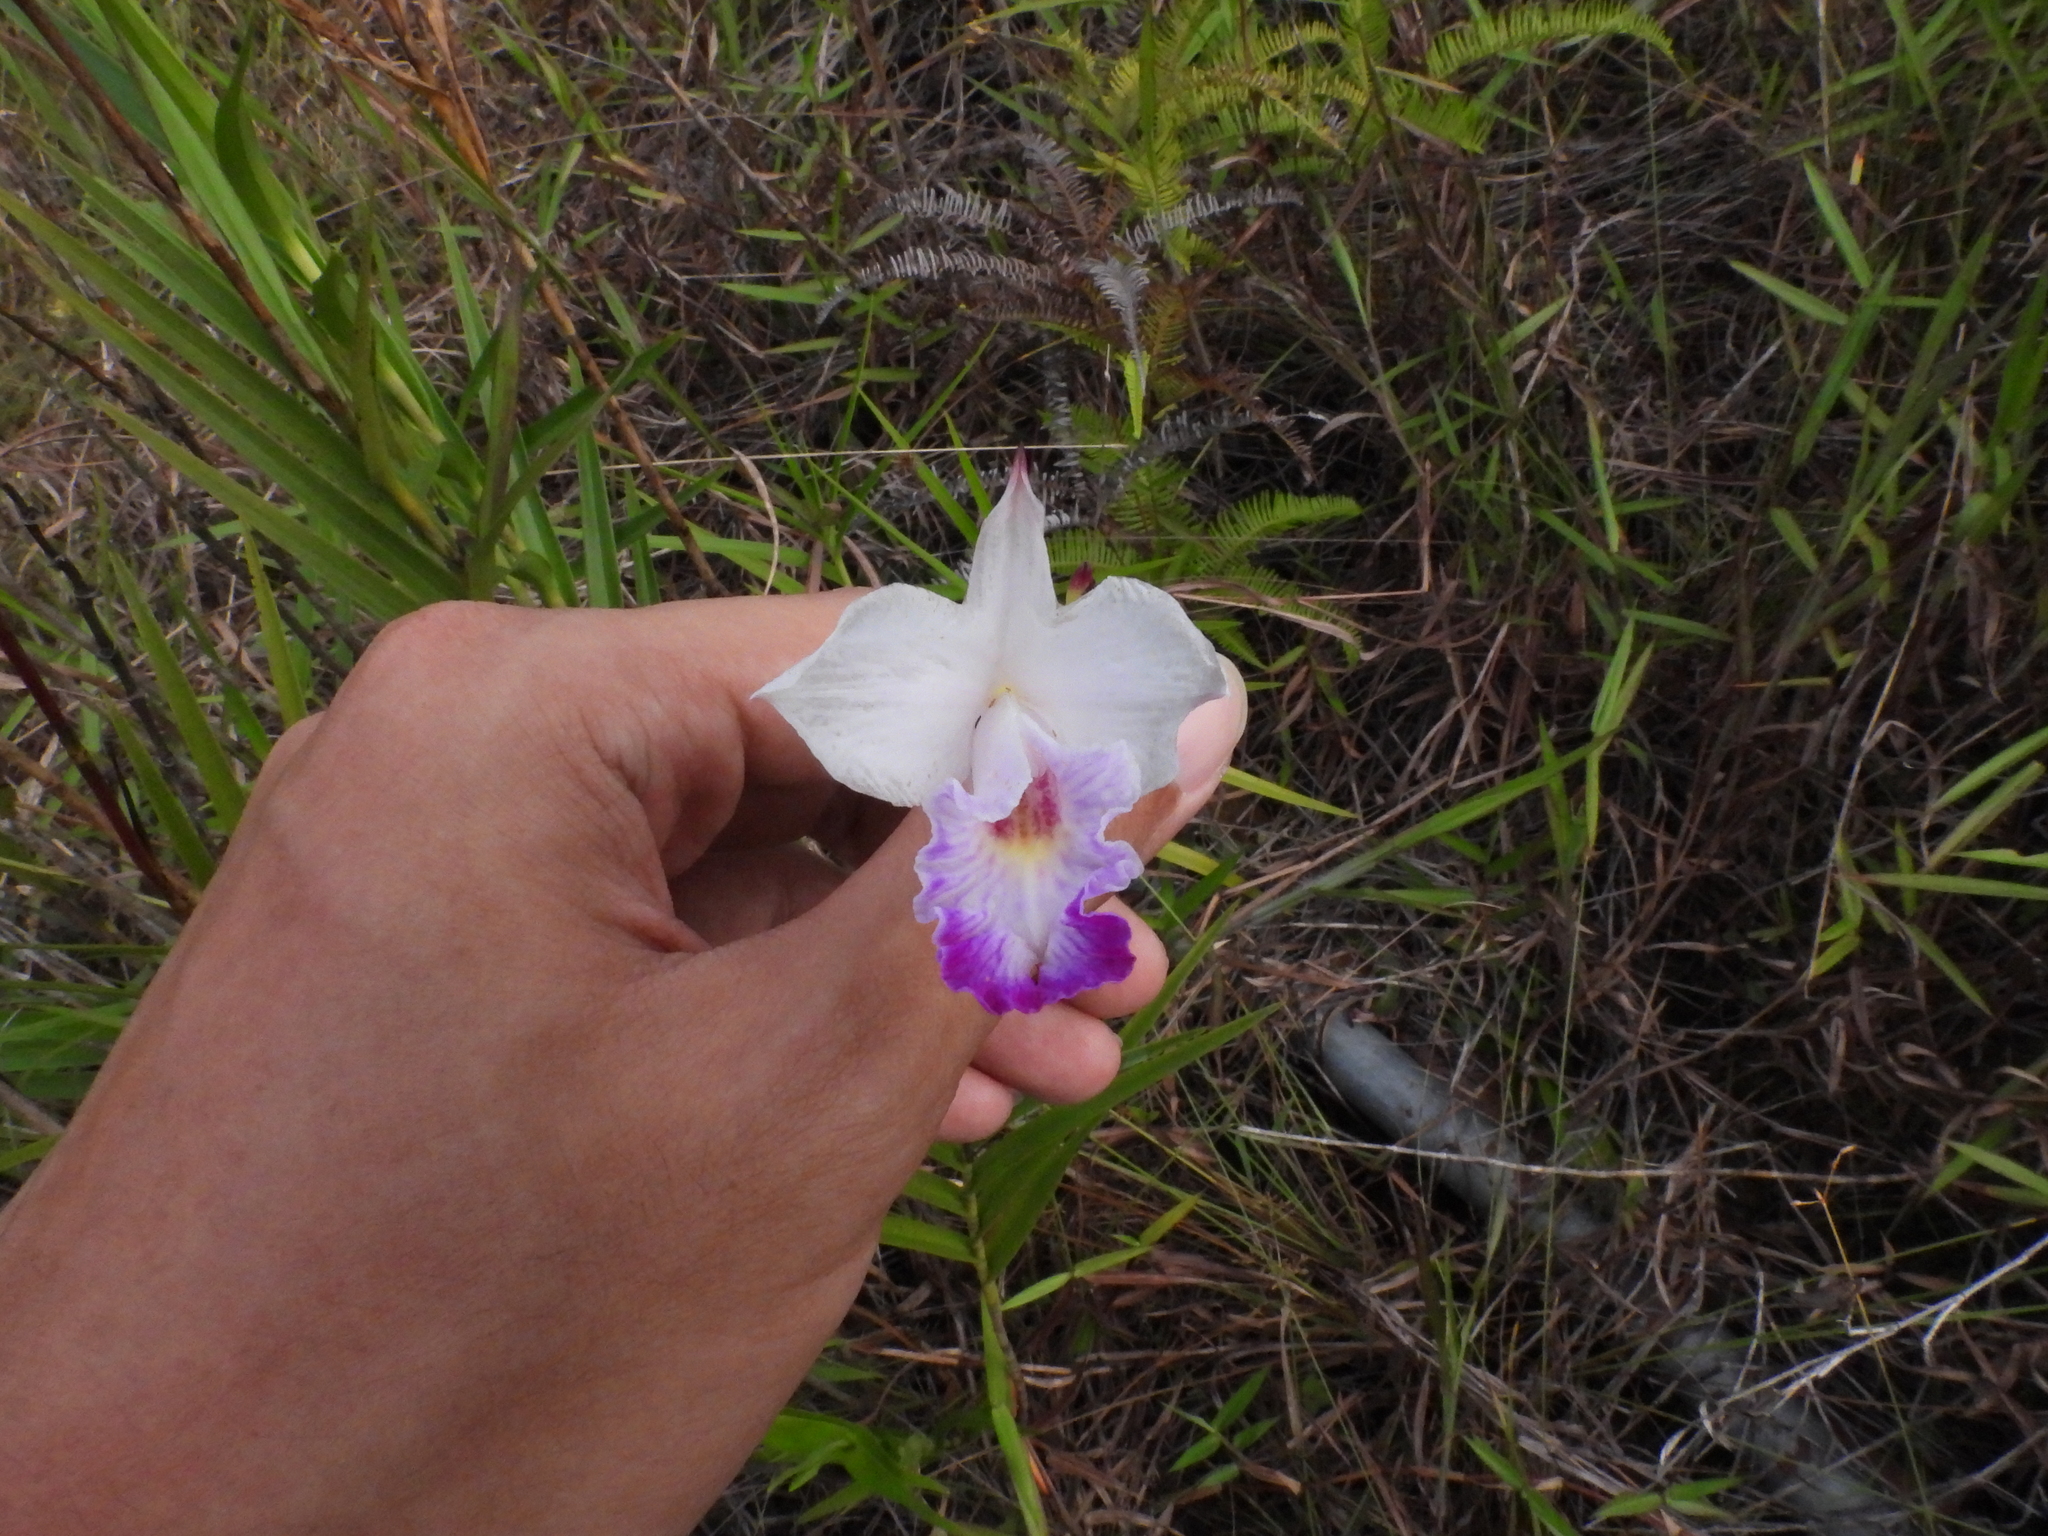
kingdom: Plantae
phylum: Tracheophyta
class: Liliopsida
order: Asparagales
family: Orchidaceae
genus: Arundina
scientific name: Arundina graminifolia
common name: Bamboo orchid
